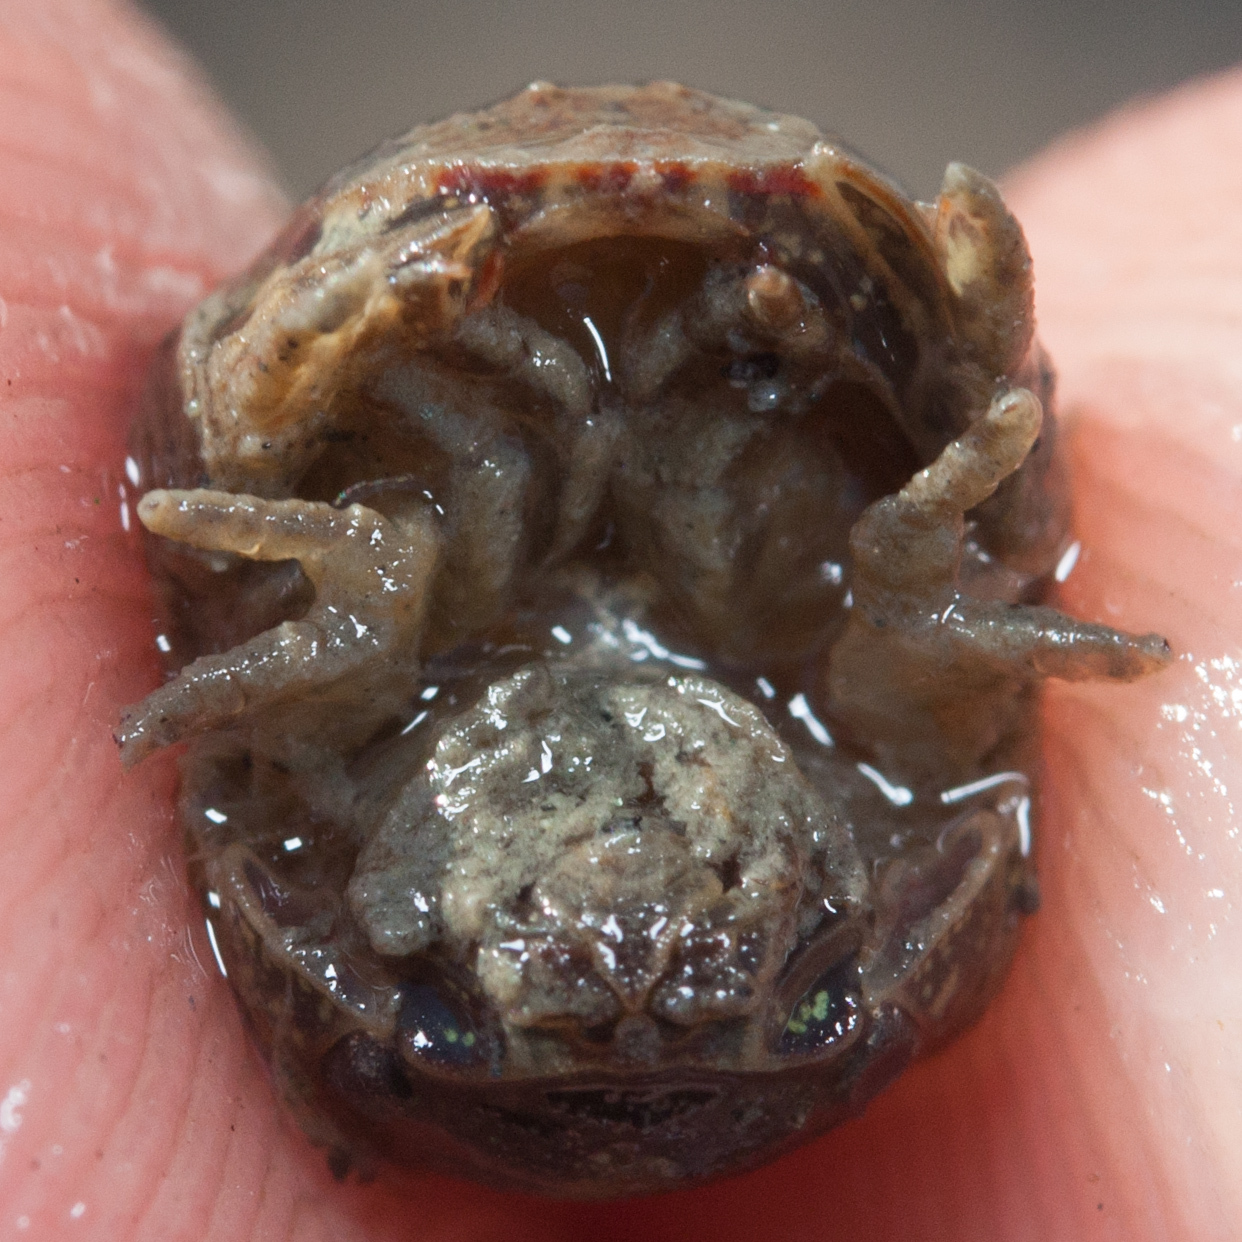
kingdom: Animalia
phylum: Arthropoda
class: Malacostraca
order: Isopoda
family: Sphaeromatidae
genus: Sphaeroma
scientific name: Sphaeroma quoianum
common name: Isopod
